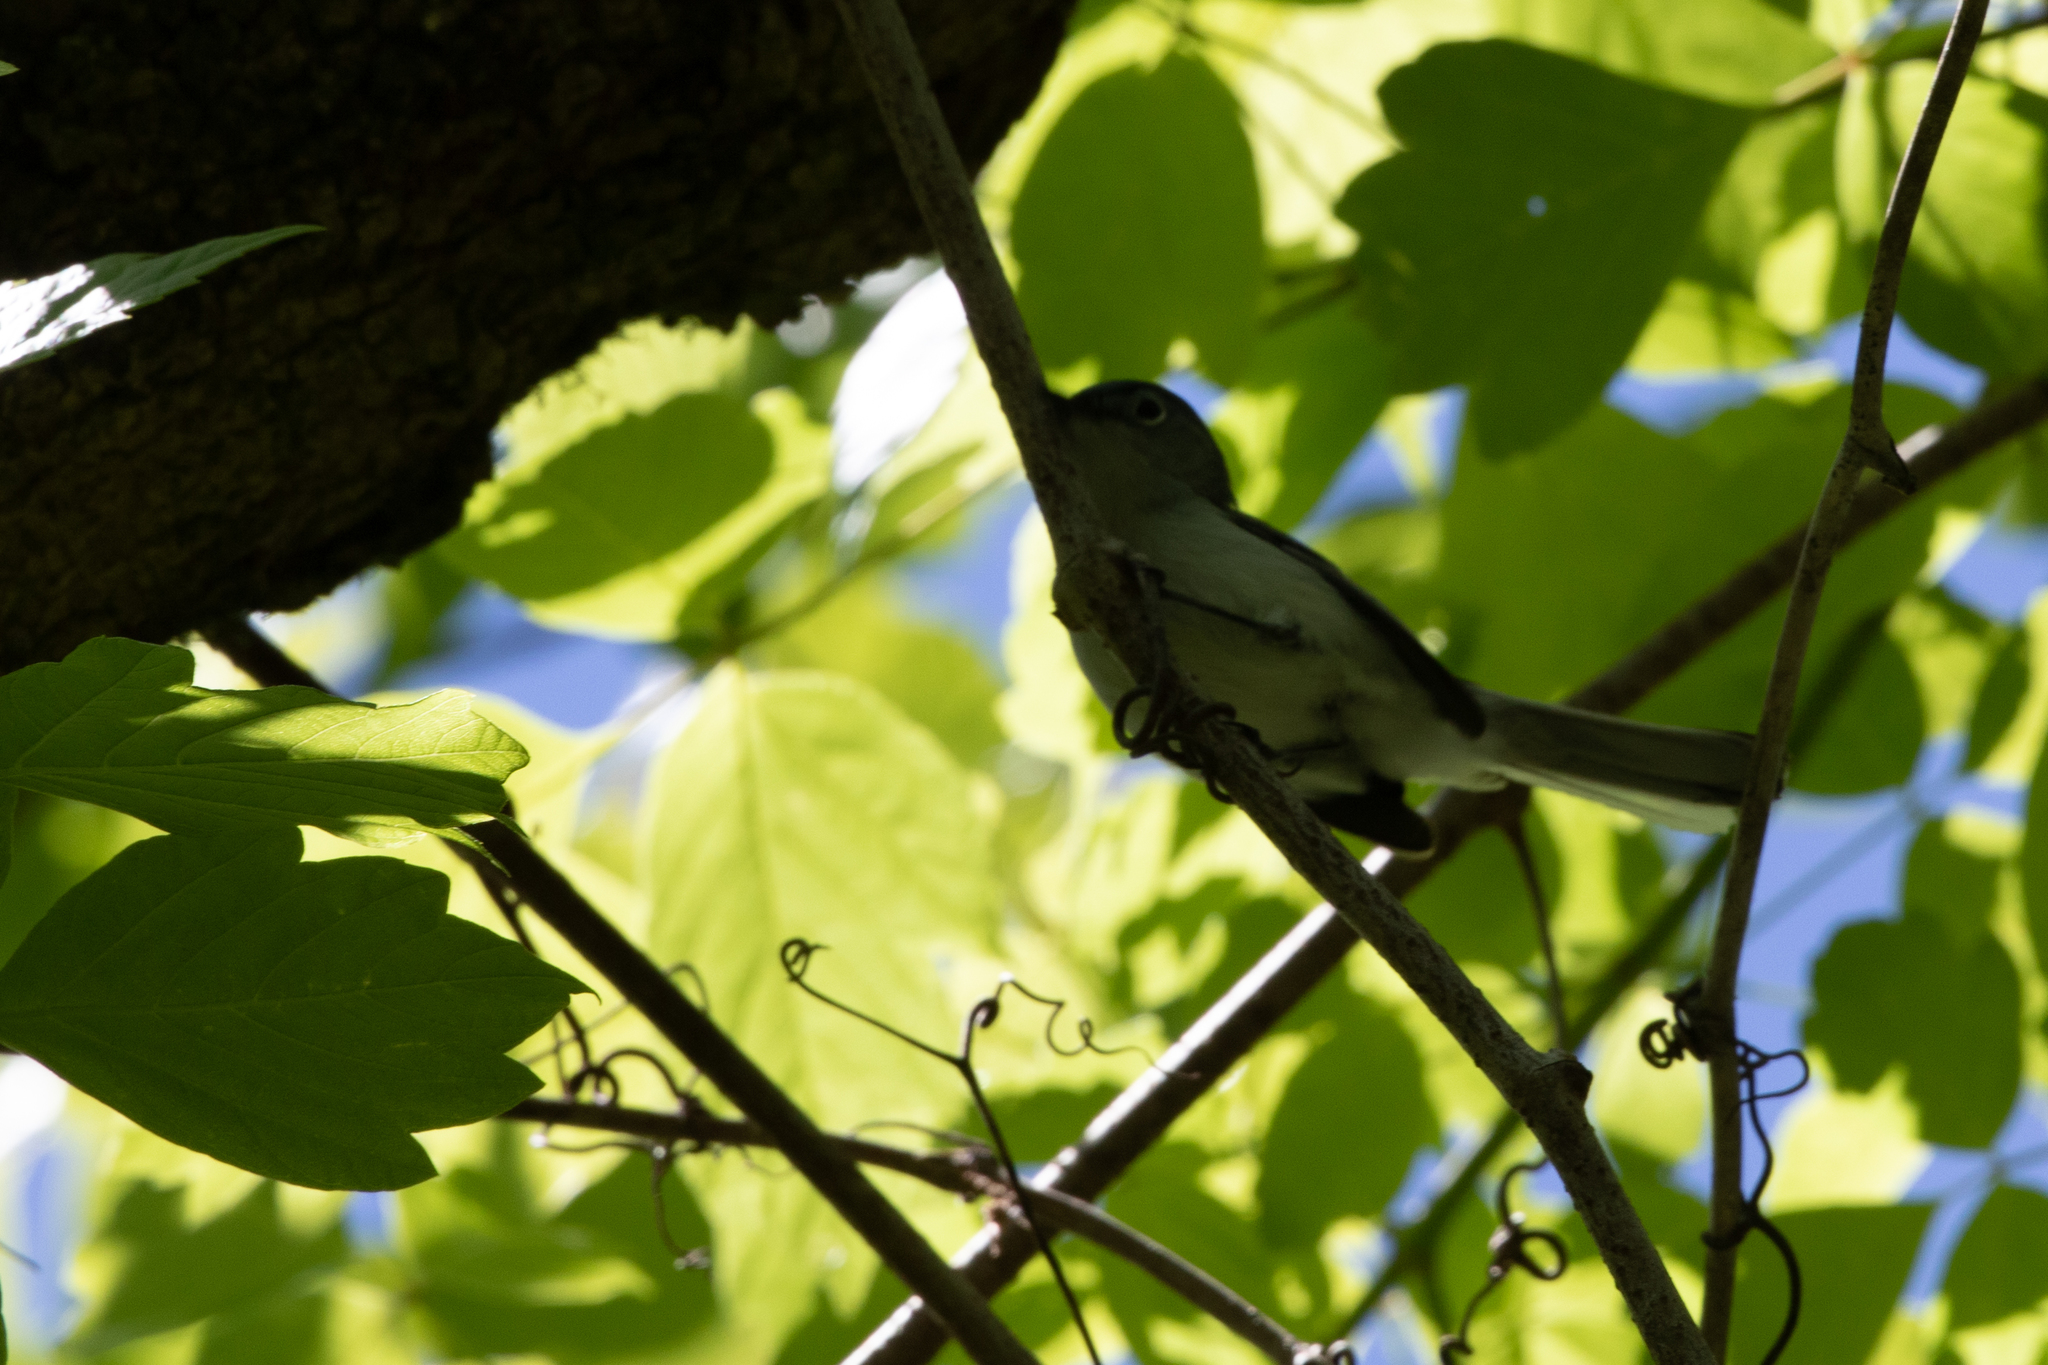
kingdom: Animalia
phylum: Chordata
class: Aves
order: Passeriformes
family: Polioptilidae
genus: Polioptila
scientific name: Polioptila caerulea
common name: Blue-gray gnatcatcher
